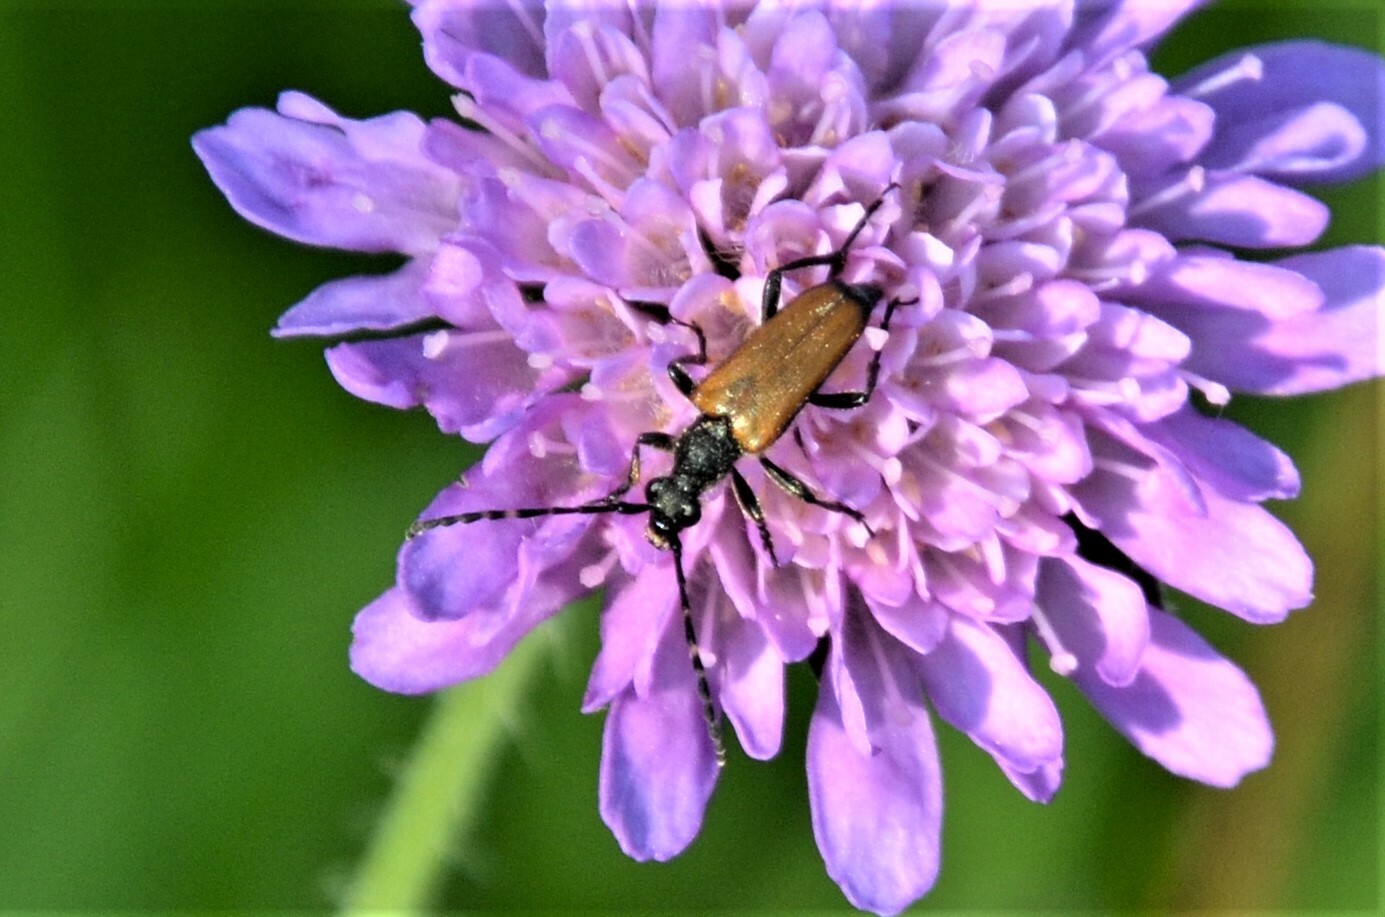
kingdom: Animalia
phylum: Arthropoda
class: Insecta
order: Coleoptera
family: Cerambycidae
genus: Paracorymbia
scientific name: Paracorymbia maculicornis
